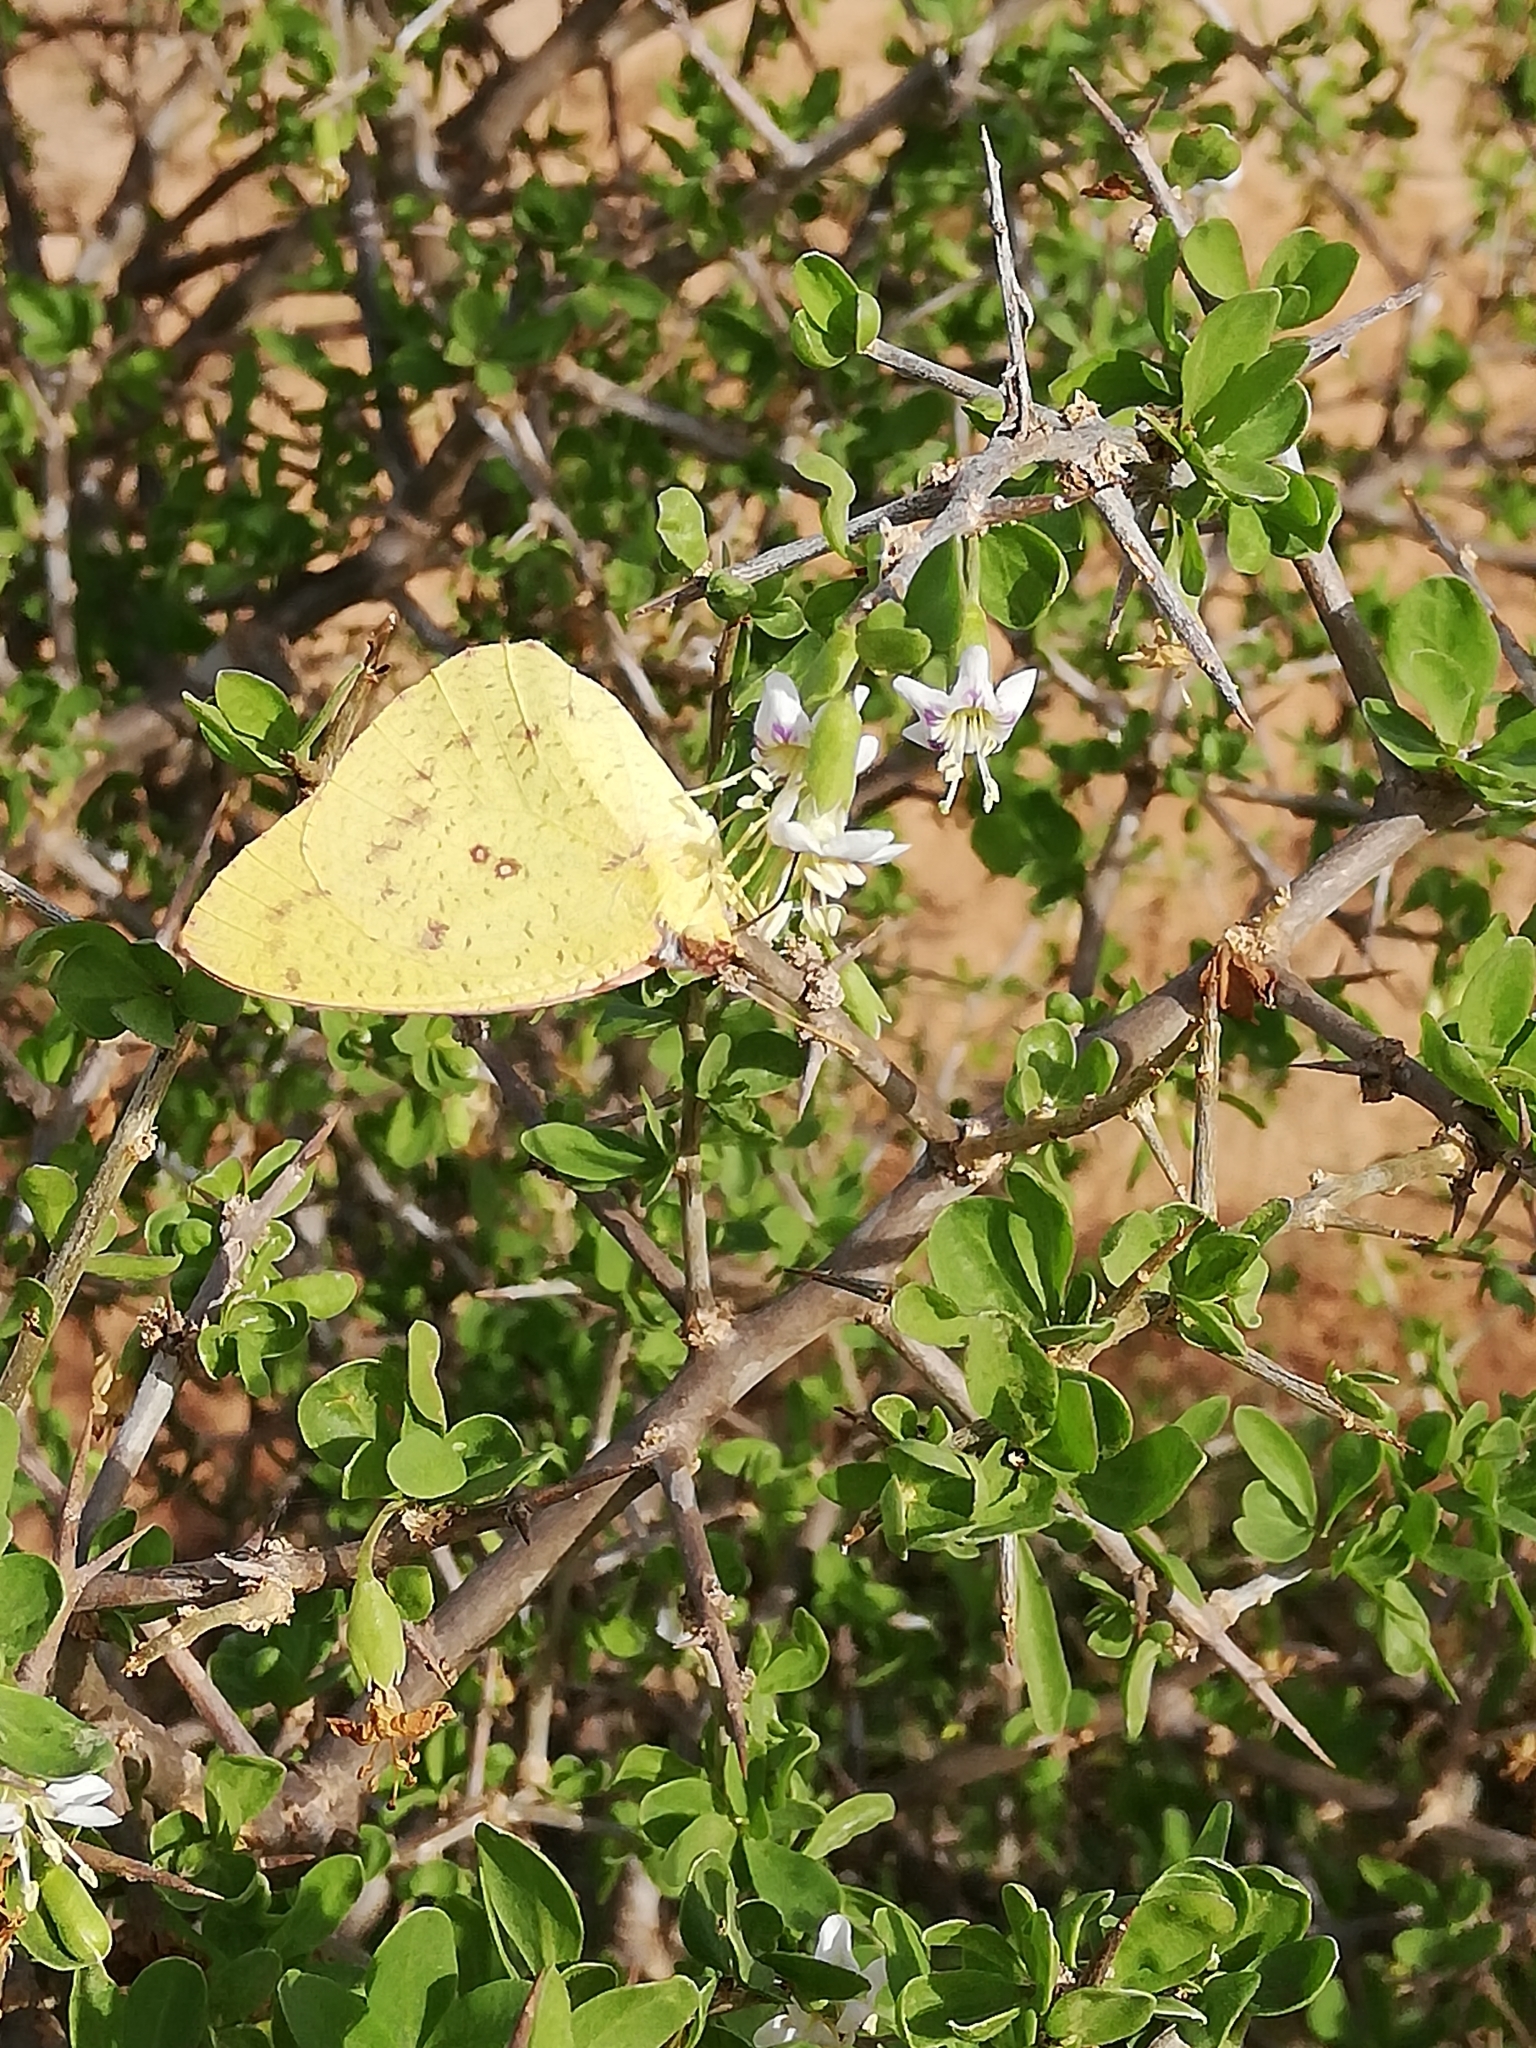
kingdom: Animalia
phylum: Arthropoda
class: Insecta
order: Lepidoptera
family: Pieridae
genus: Catopsilia
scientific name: Catopsilia florella
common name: African migrant
